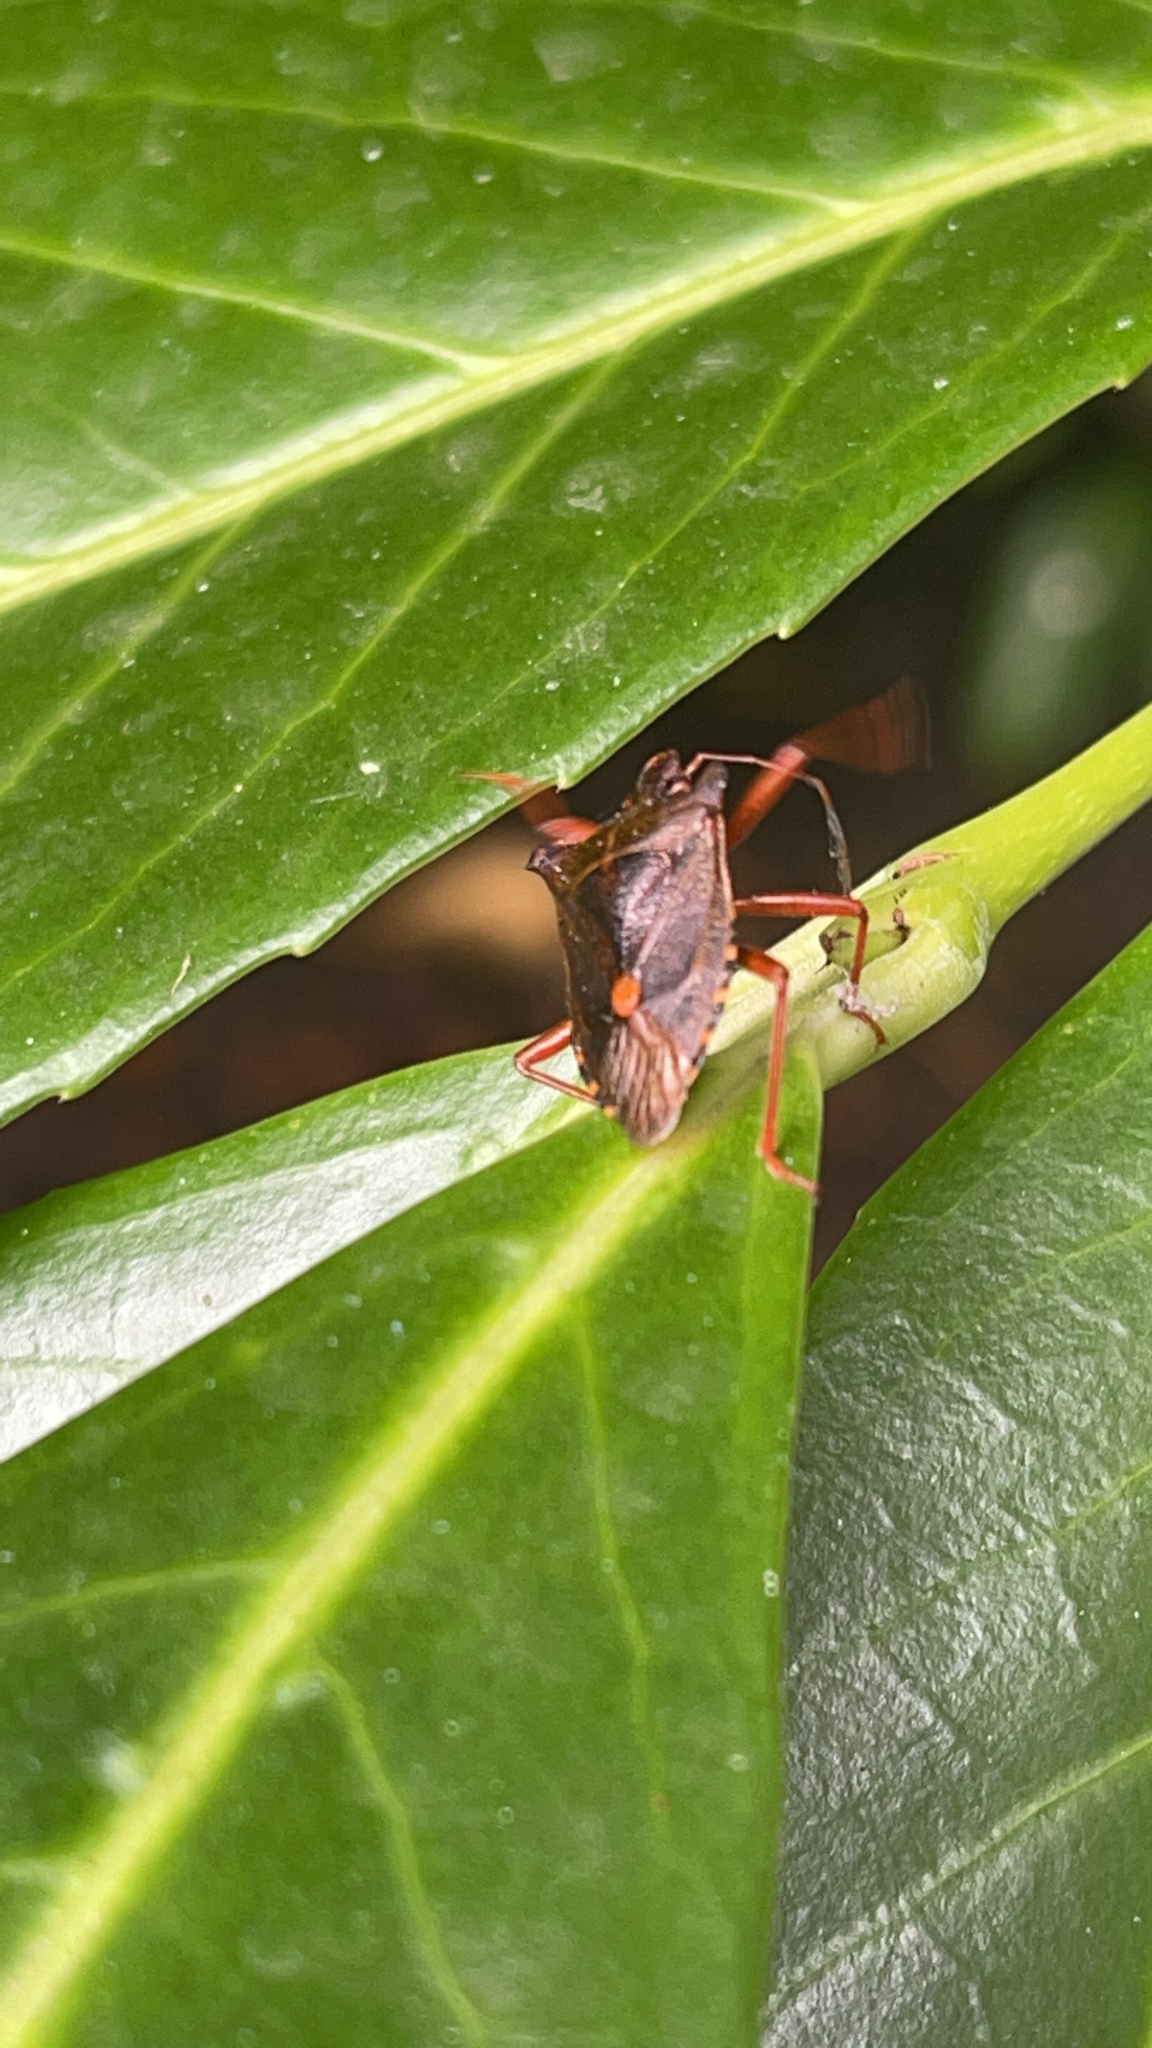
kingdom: Animalia
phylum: Arthropoda
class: Insecta
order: Hemiptera
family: Pentatomidae
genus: Pentatoma
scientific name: Pentatoma rufipes
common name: Forest bug
